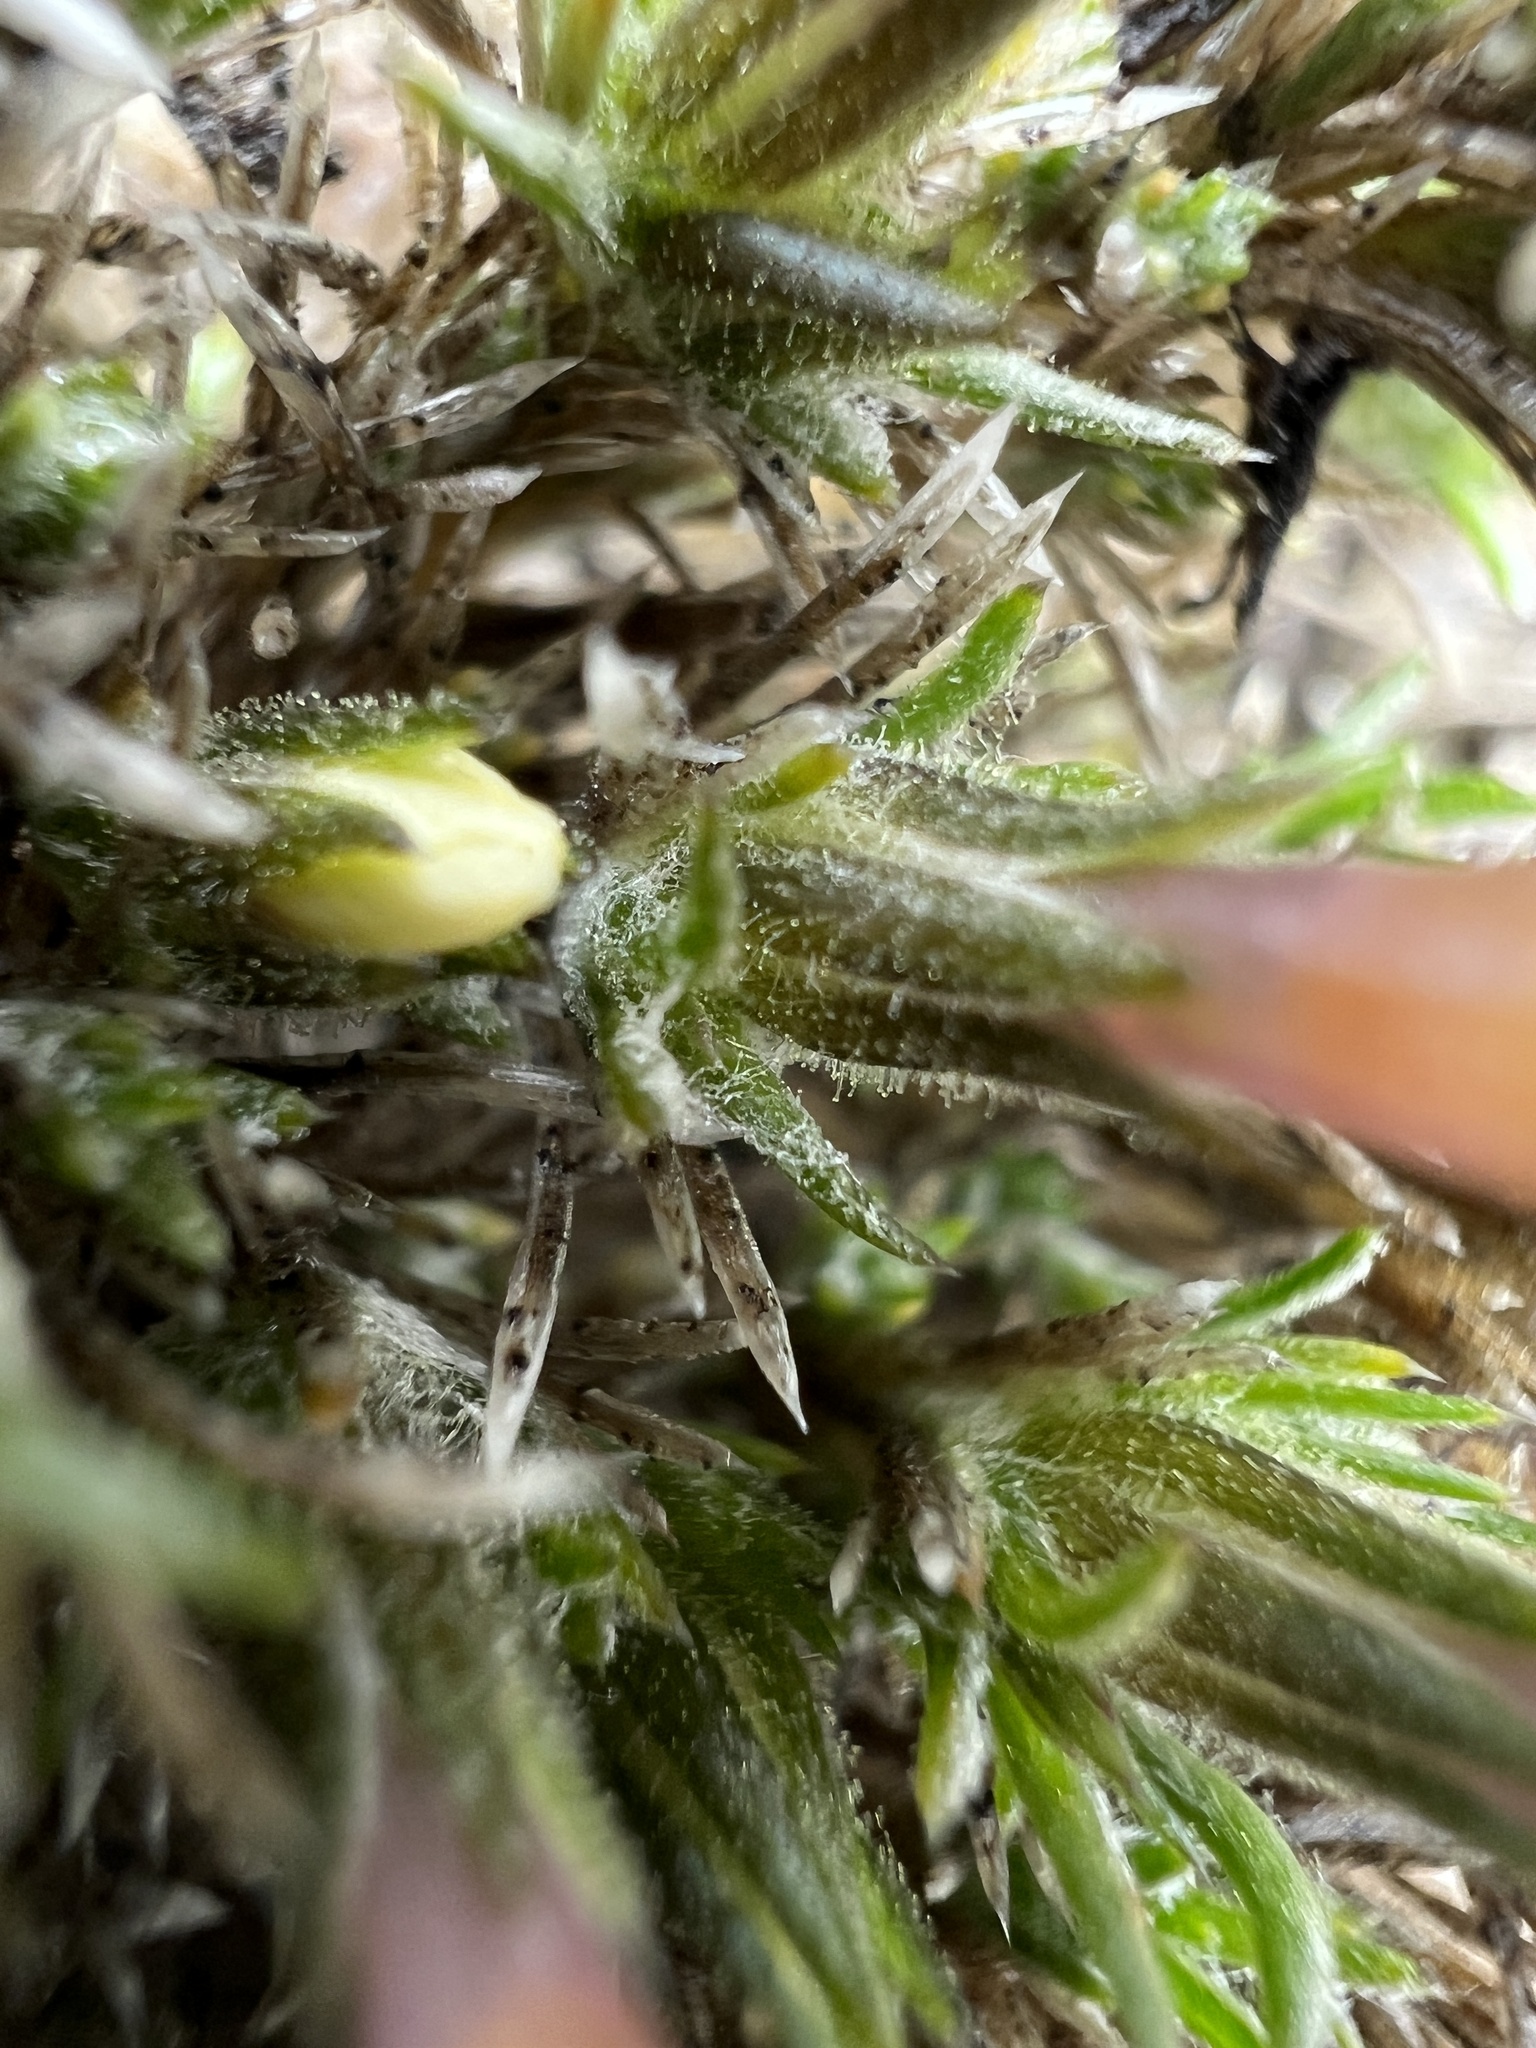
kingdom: Plantae
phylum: Tracheophyta
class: Magnoliopsida
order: Ericales
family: Polemoniaceae
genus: Phlox
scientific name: Phlox douglasii
